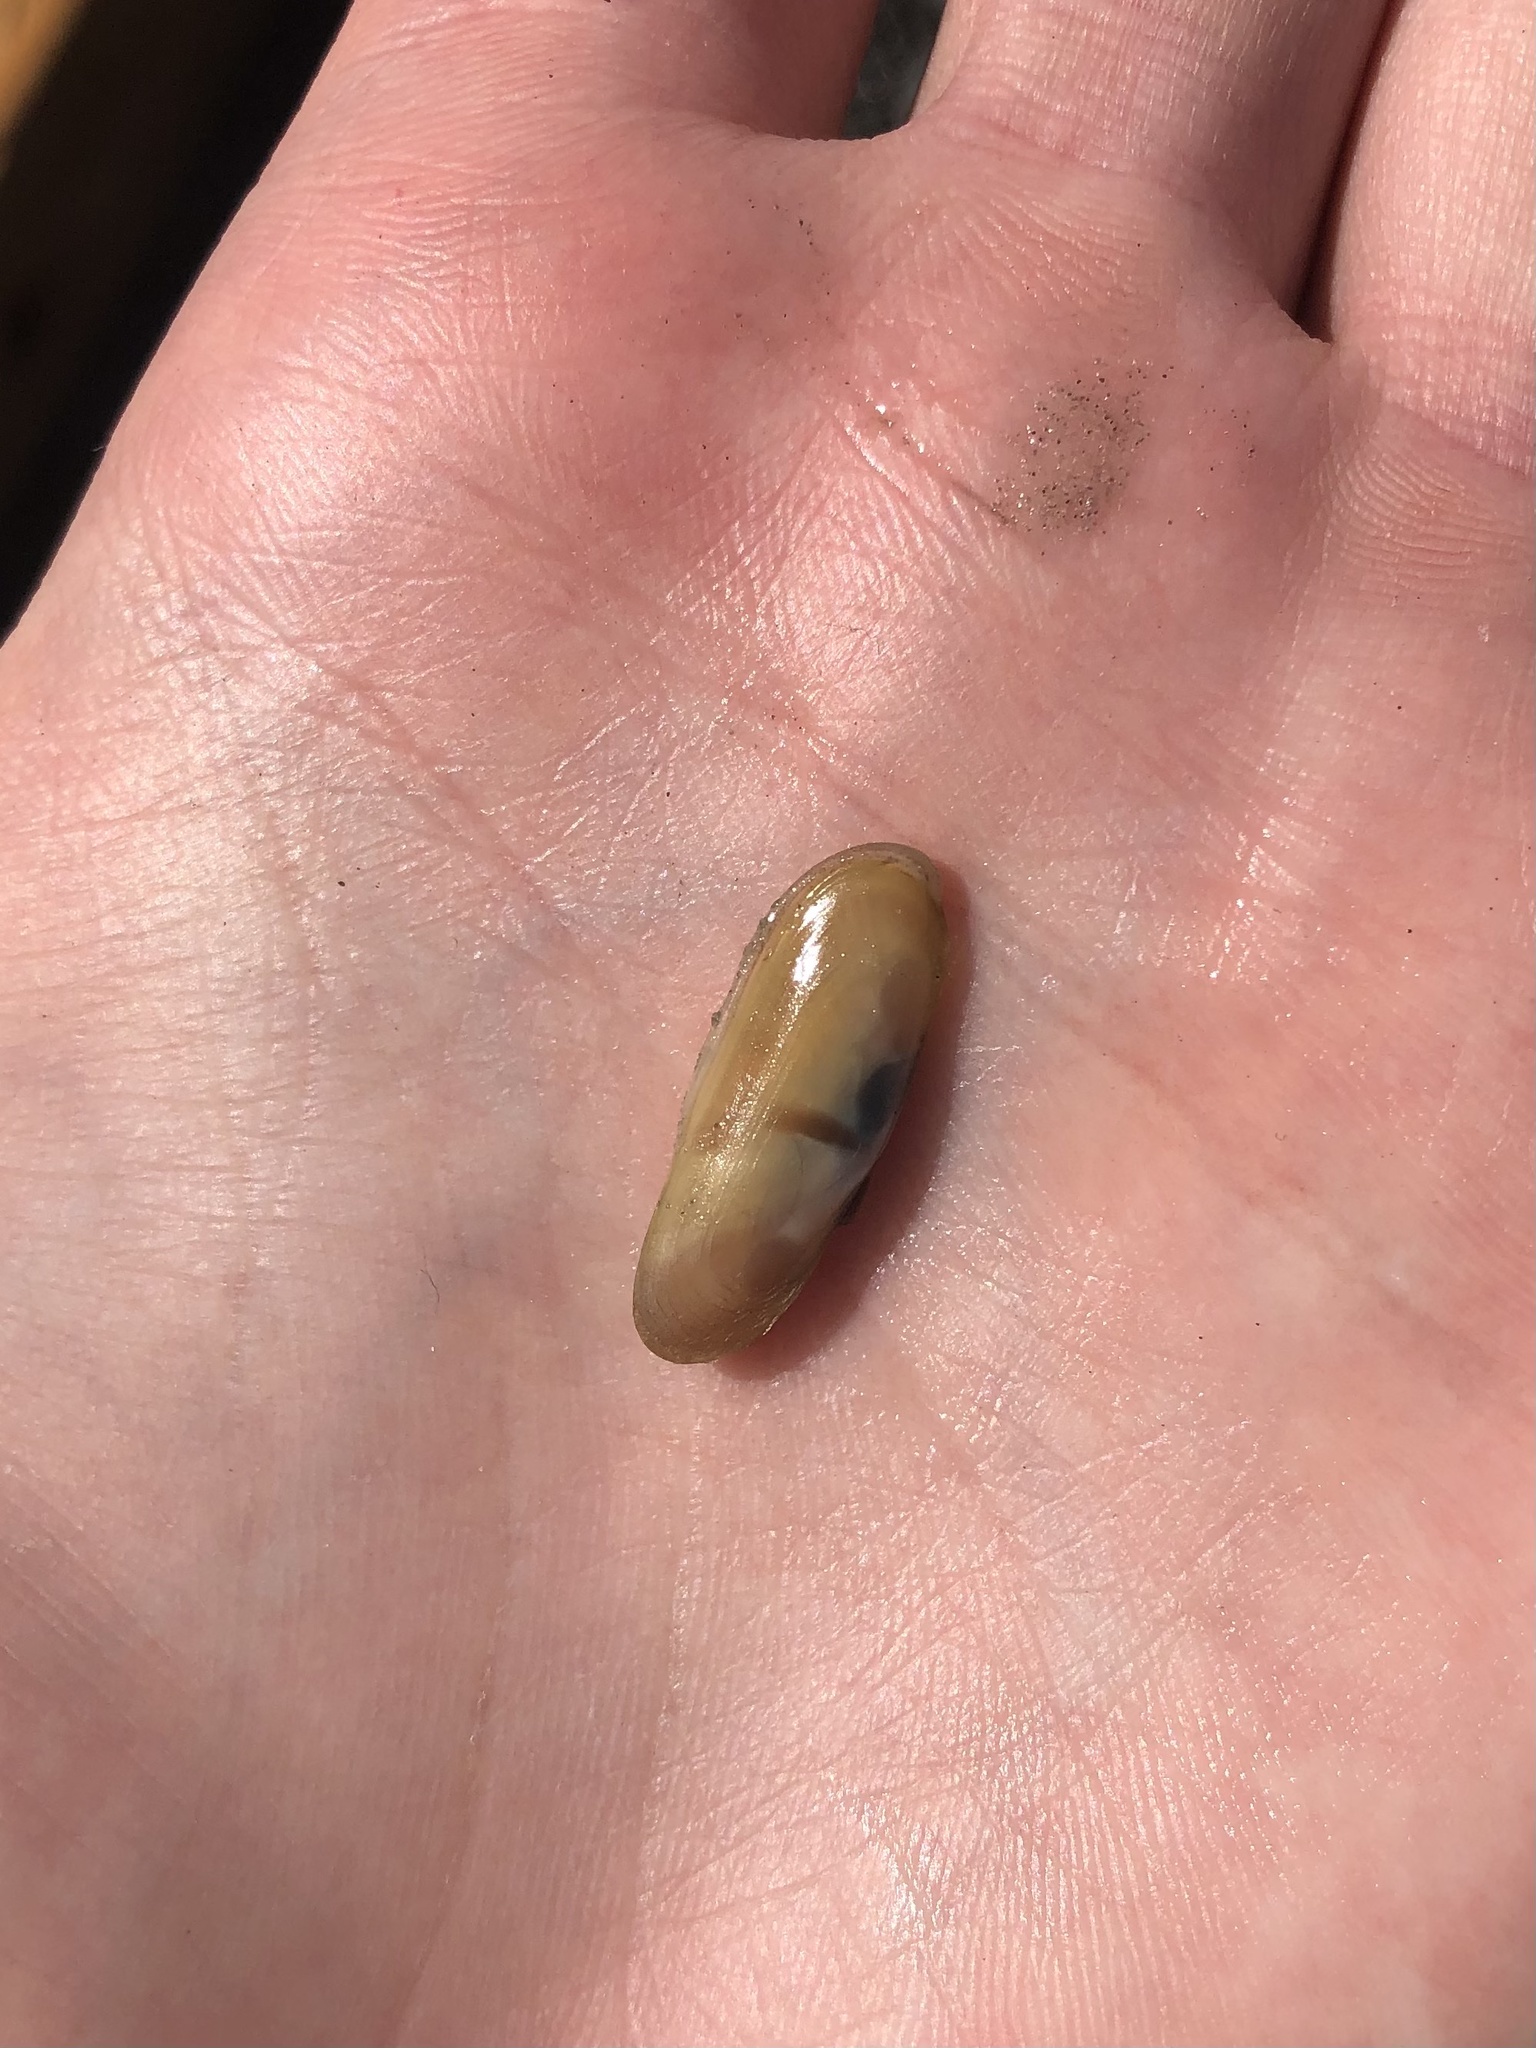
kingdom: Animalia
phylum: Mollusca
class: Bivalvia
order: Cardiida
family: Solecurtidae
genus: Tagelus
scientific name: Tagelus divisus
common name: Purplish tagelus
